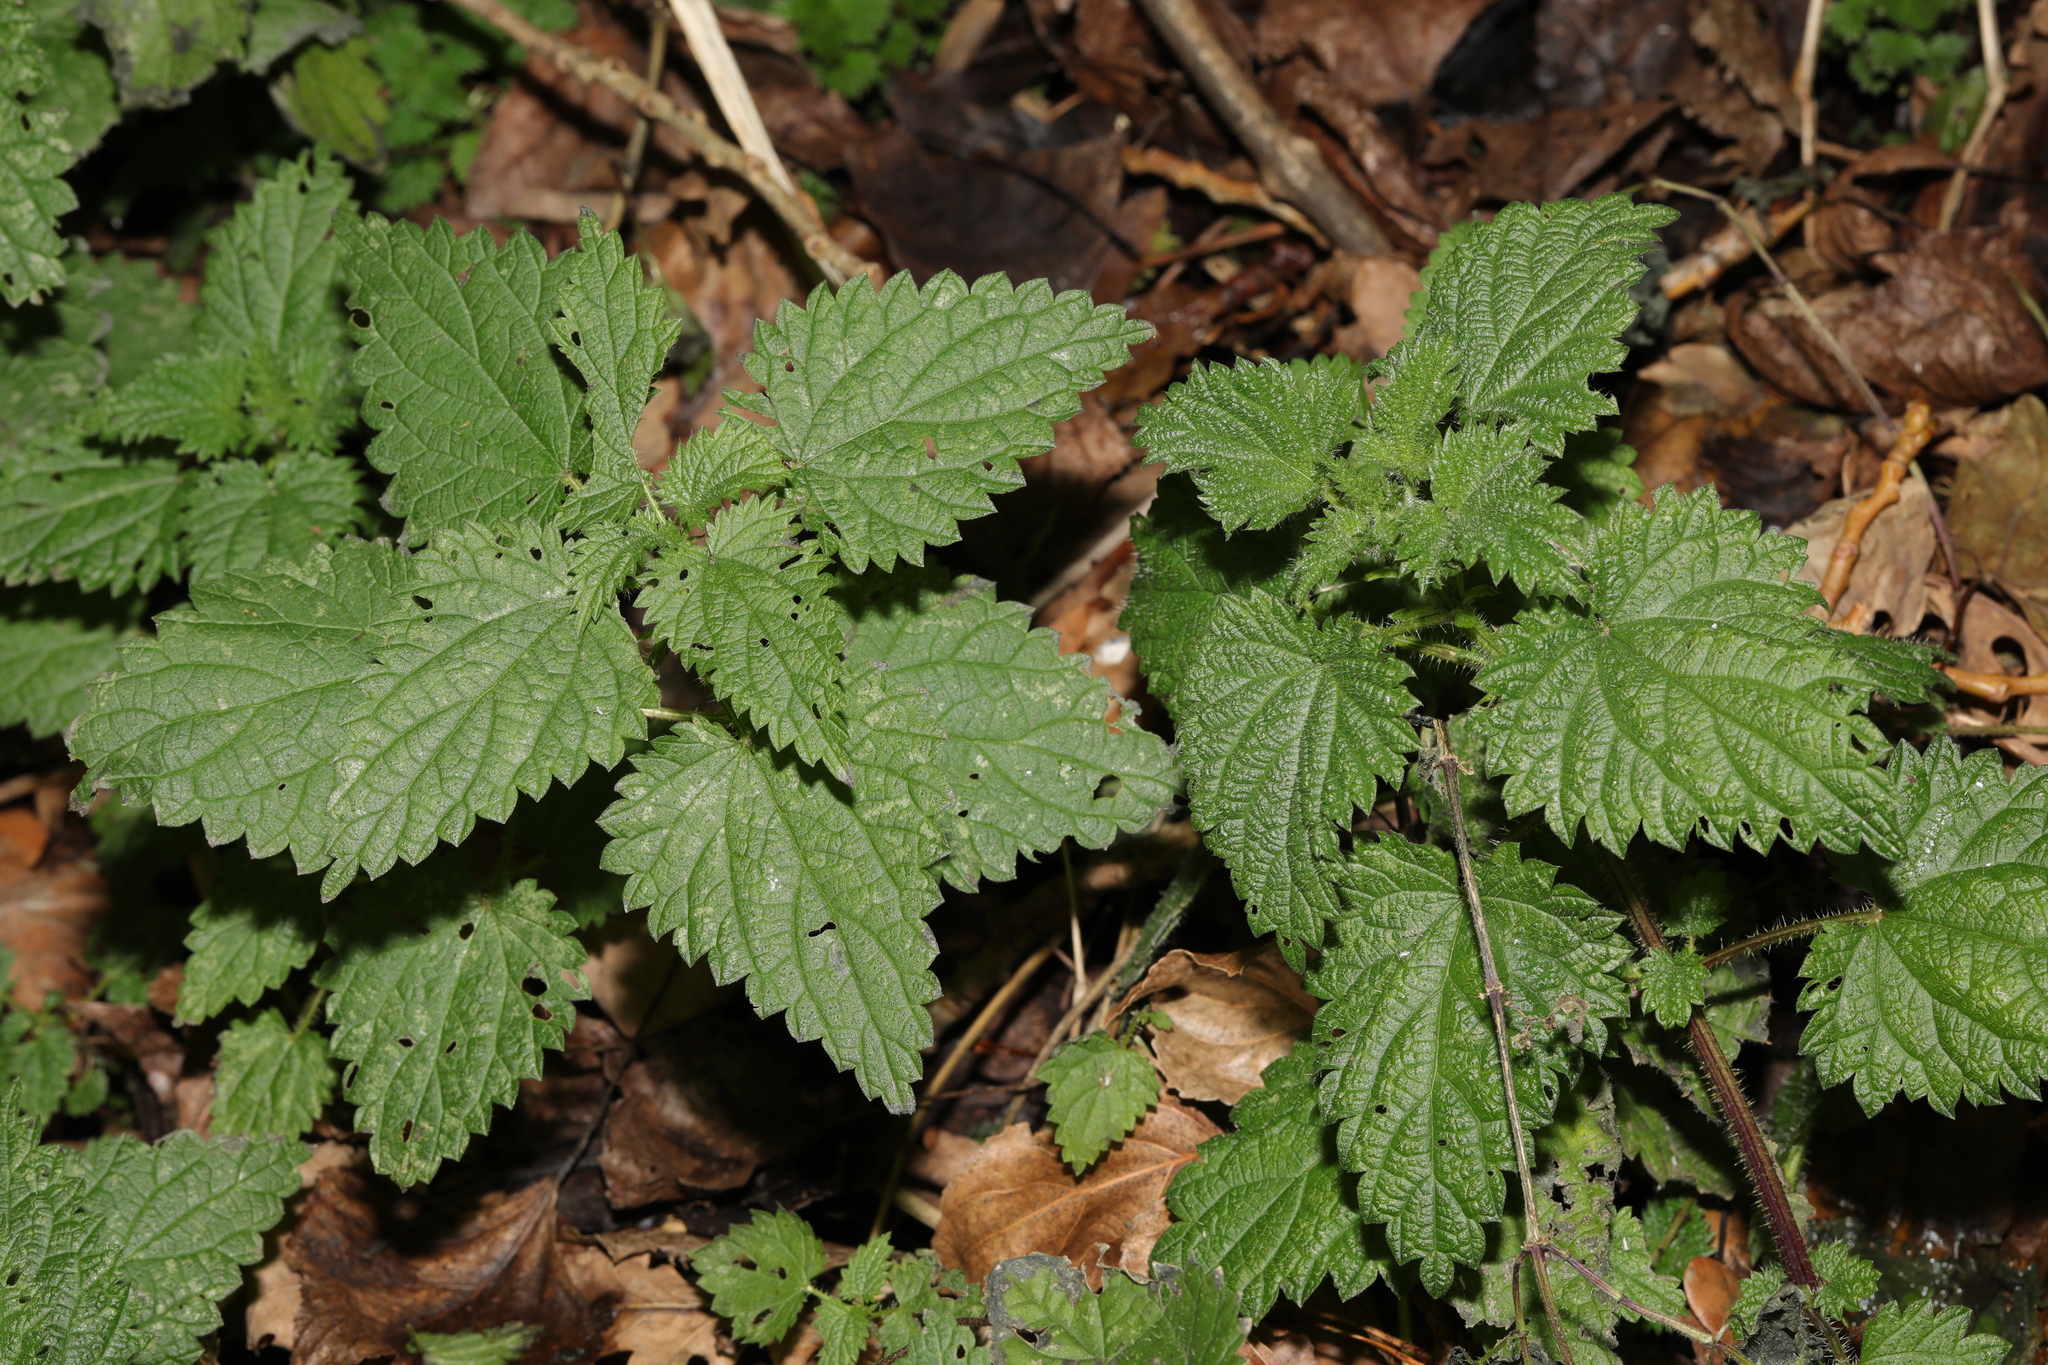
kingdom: Plantae
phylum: Tracheophyta
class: Magnoliopsida
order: Rosales
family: Urticaceae
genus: Urtica
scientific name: Urtica dioica
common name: Common nettle
